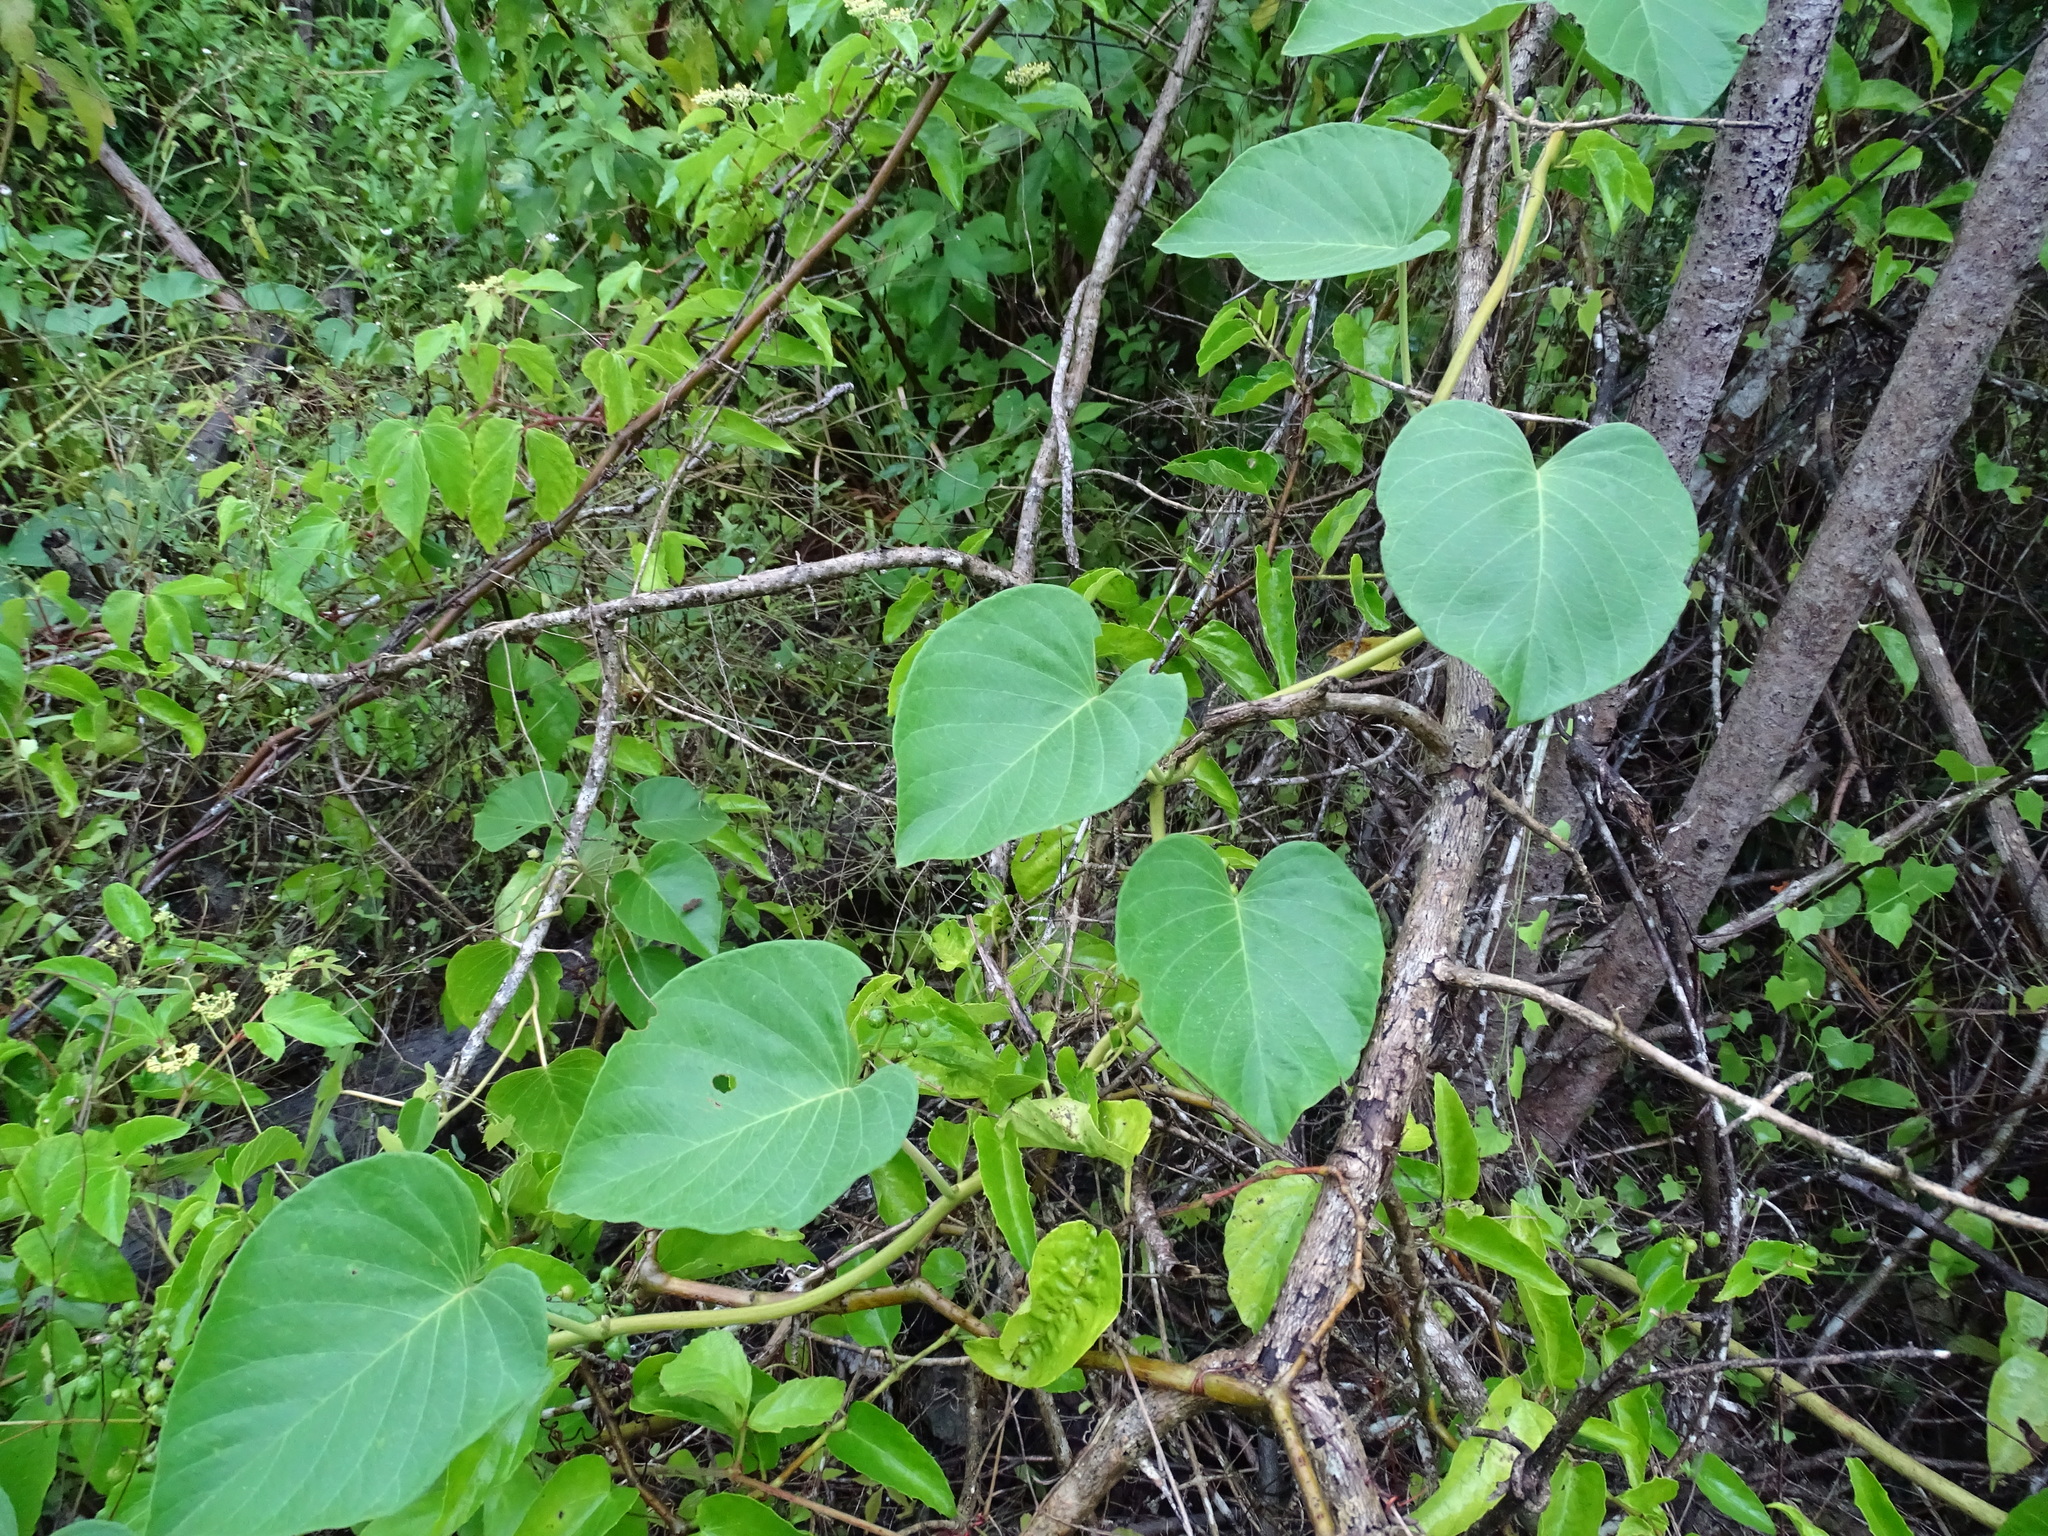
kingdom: Plantae
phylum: Tracheophyta
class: Magnoliopsida
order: Solanales
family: Convolvulaceae
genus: Ipomoea
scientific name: Ipomoea carnea
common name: Morning-glory
